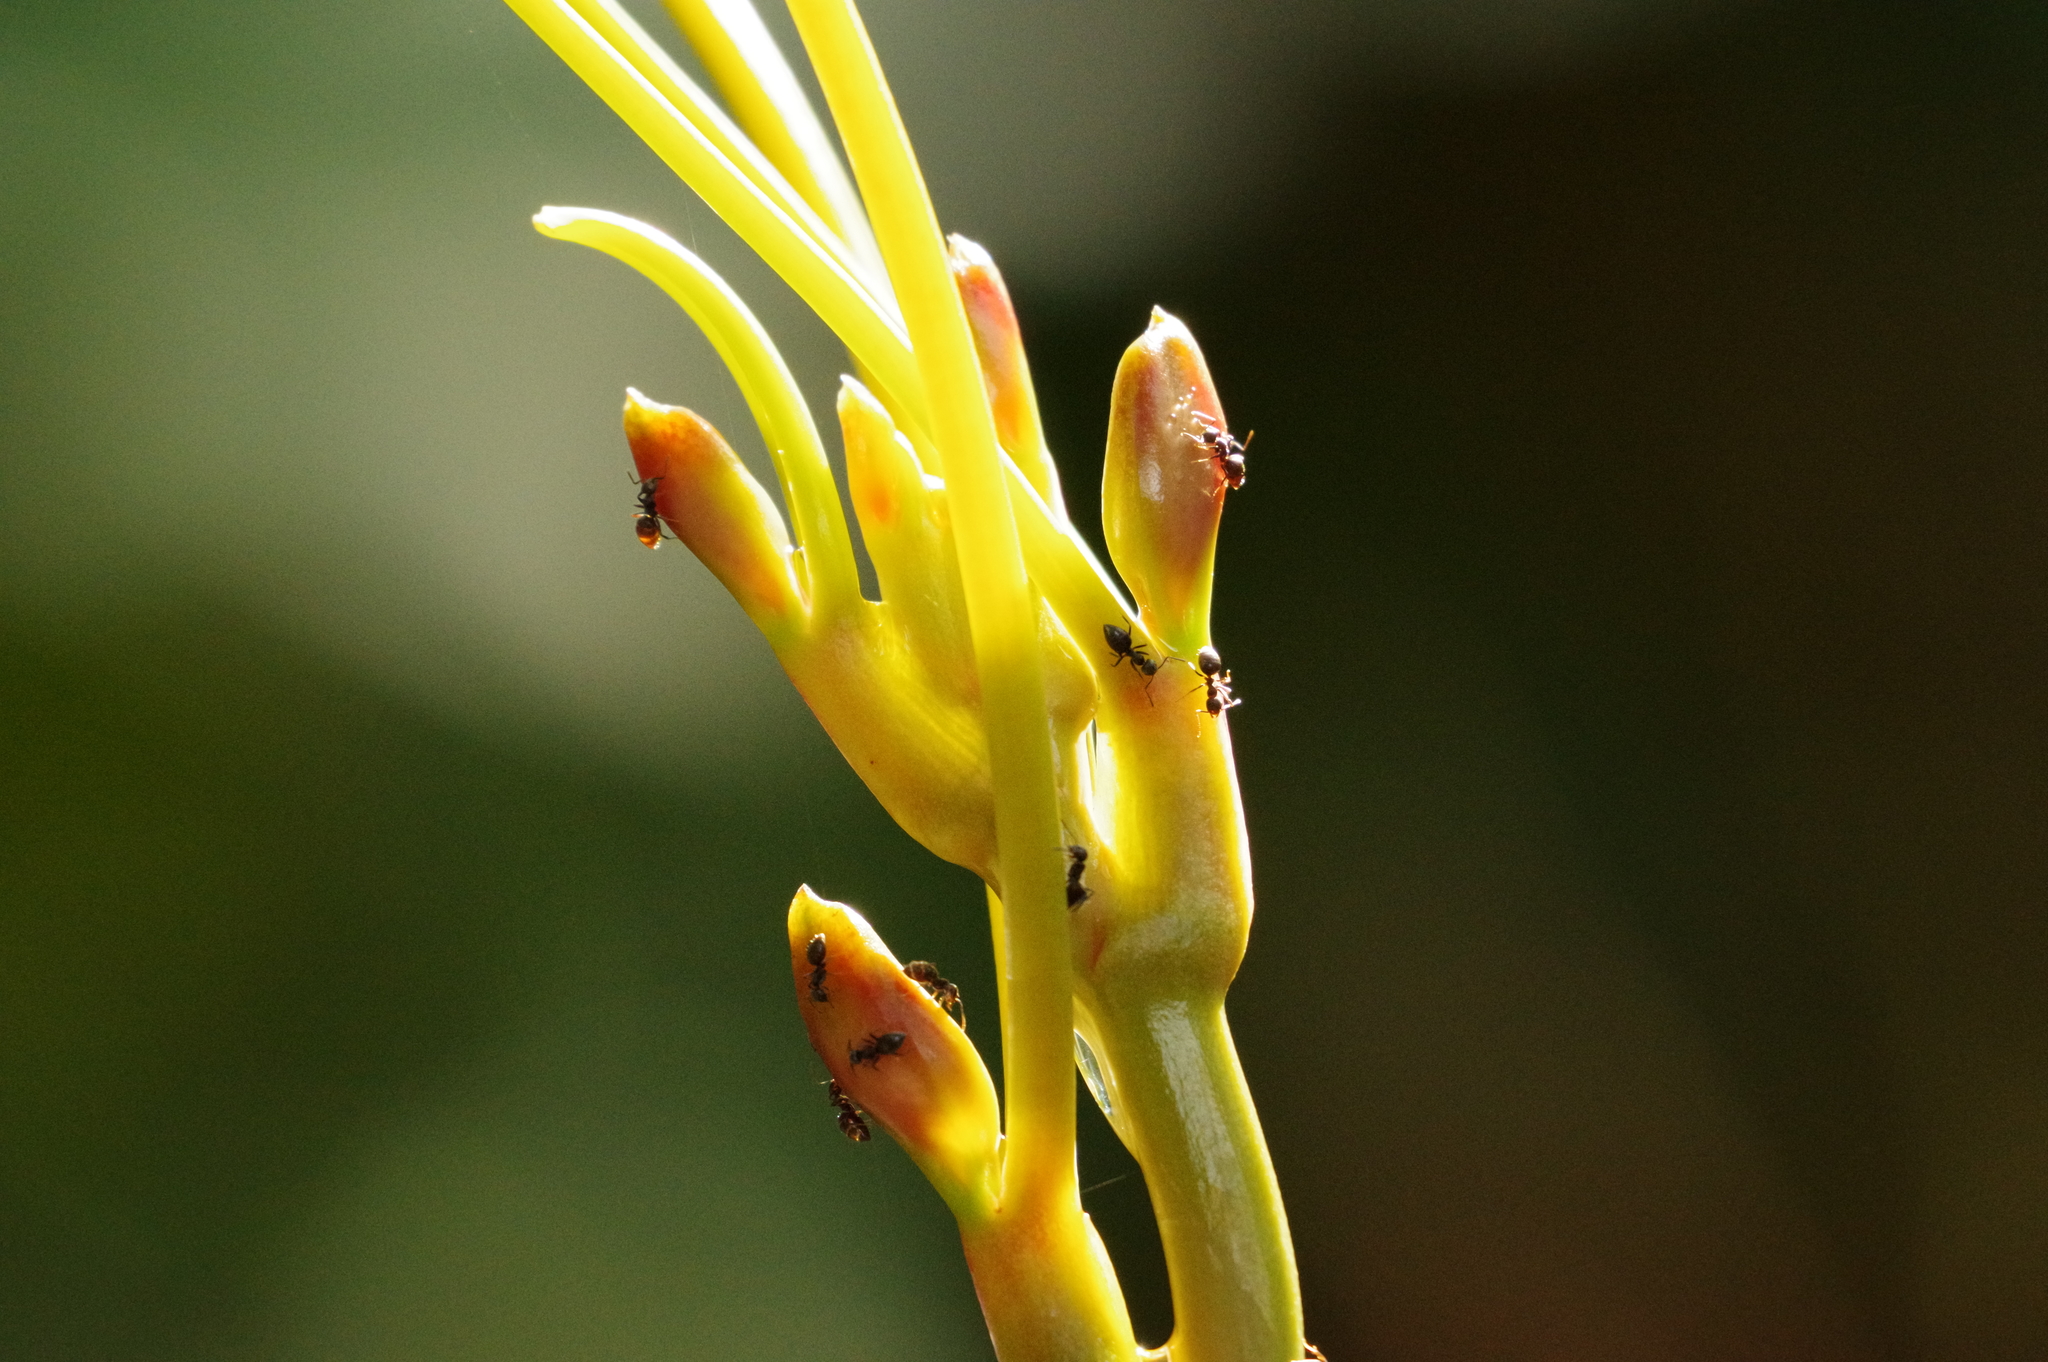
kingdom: Animalia
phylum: Arthropoda
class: Insecta
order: Hymenoptera
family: Formicidae
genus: Technomyrmex
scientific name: Technomyrmex brunneus
